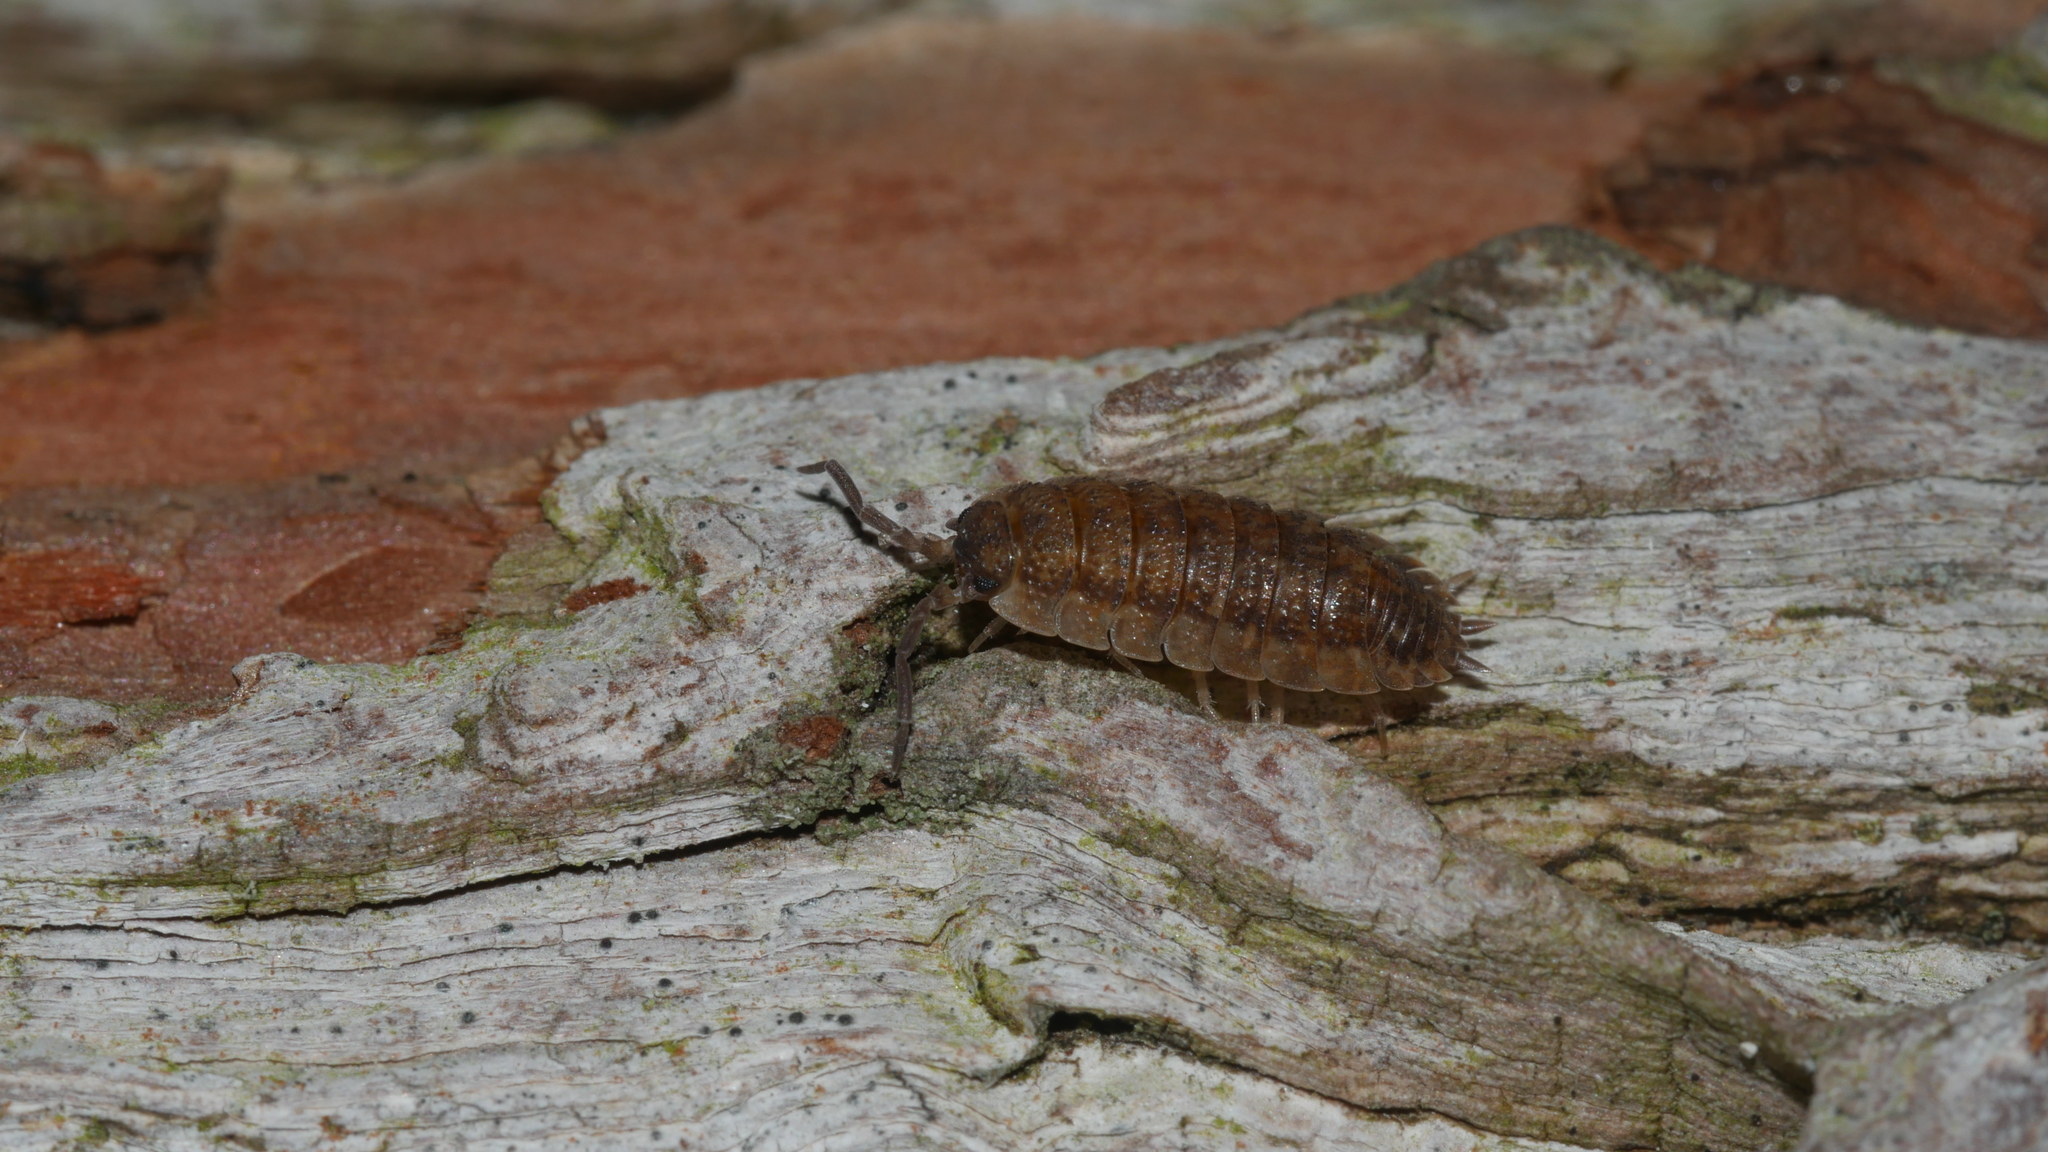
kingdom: Animalia
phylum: Arthropoda
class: Malacostraca
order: Isopoda
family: Porcellionidae
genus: Porcellio
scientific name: Porcellio scaber
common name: Common rough woodlouse
